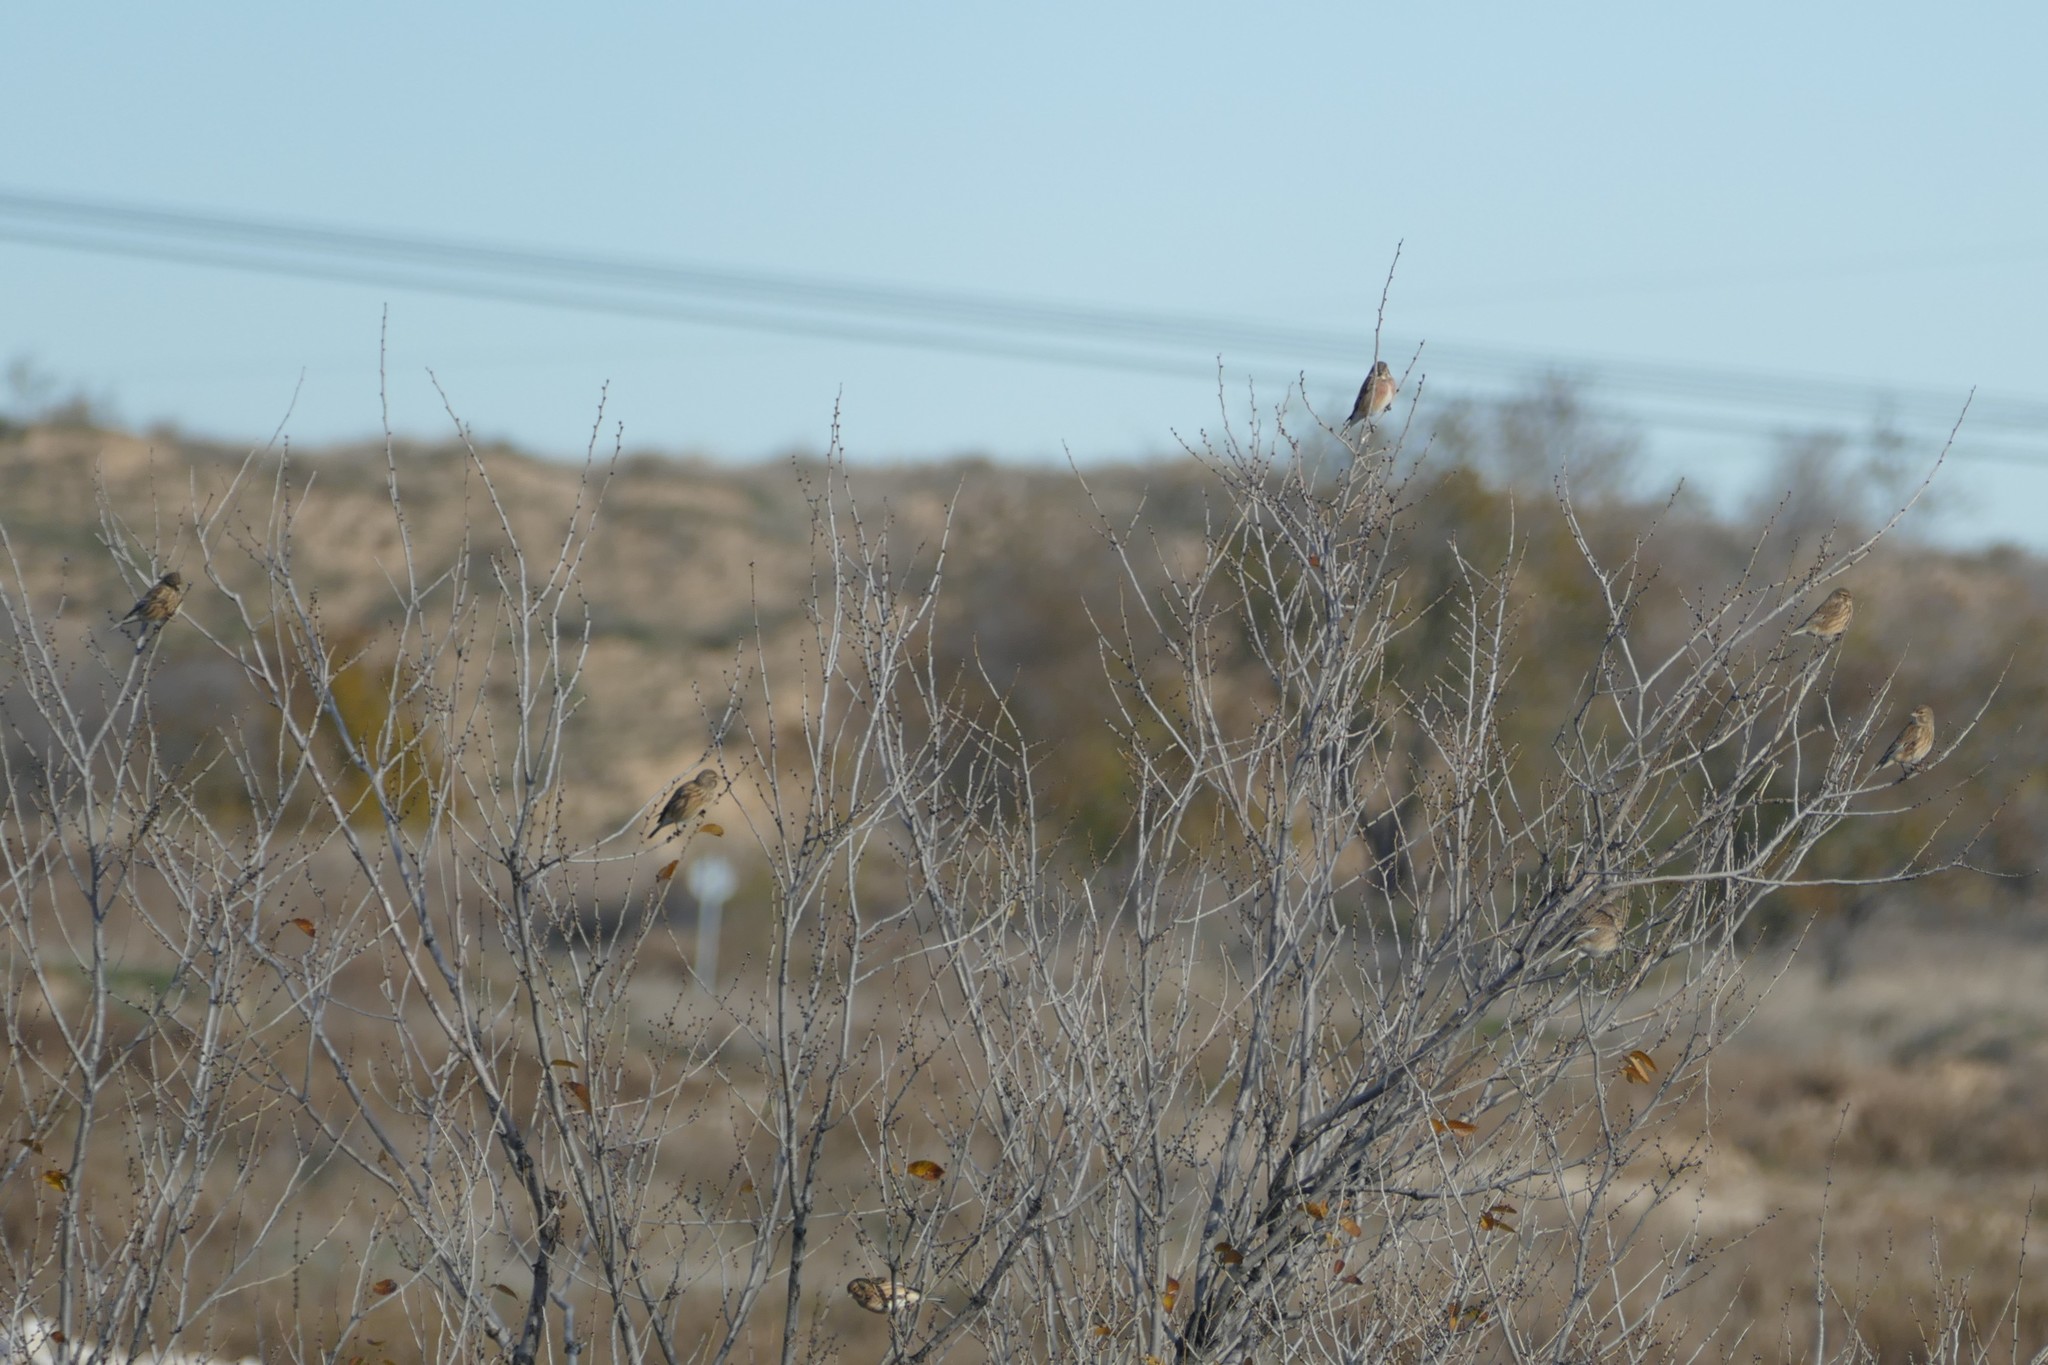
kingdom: Animalia
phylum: Chordata
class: Aves
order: Passeriformes
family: Fringillidae
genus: Linaria
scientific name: Linaria cannabina
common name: Common linnet
